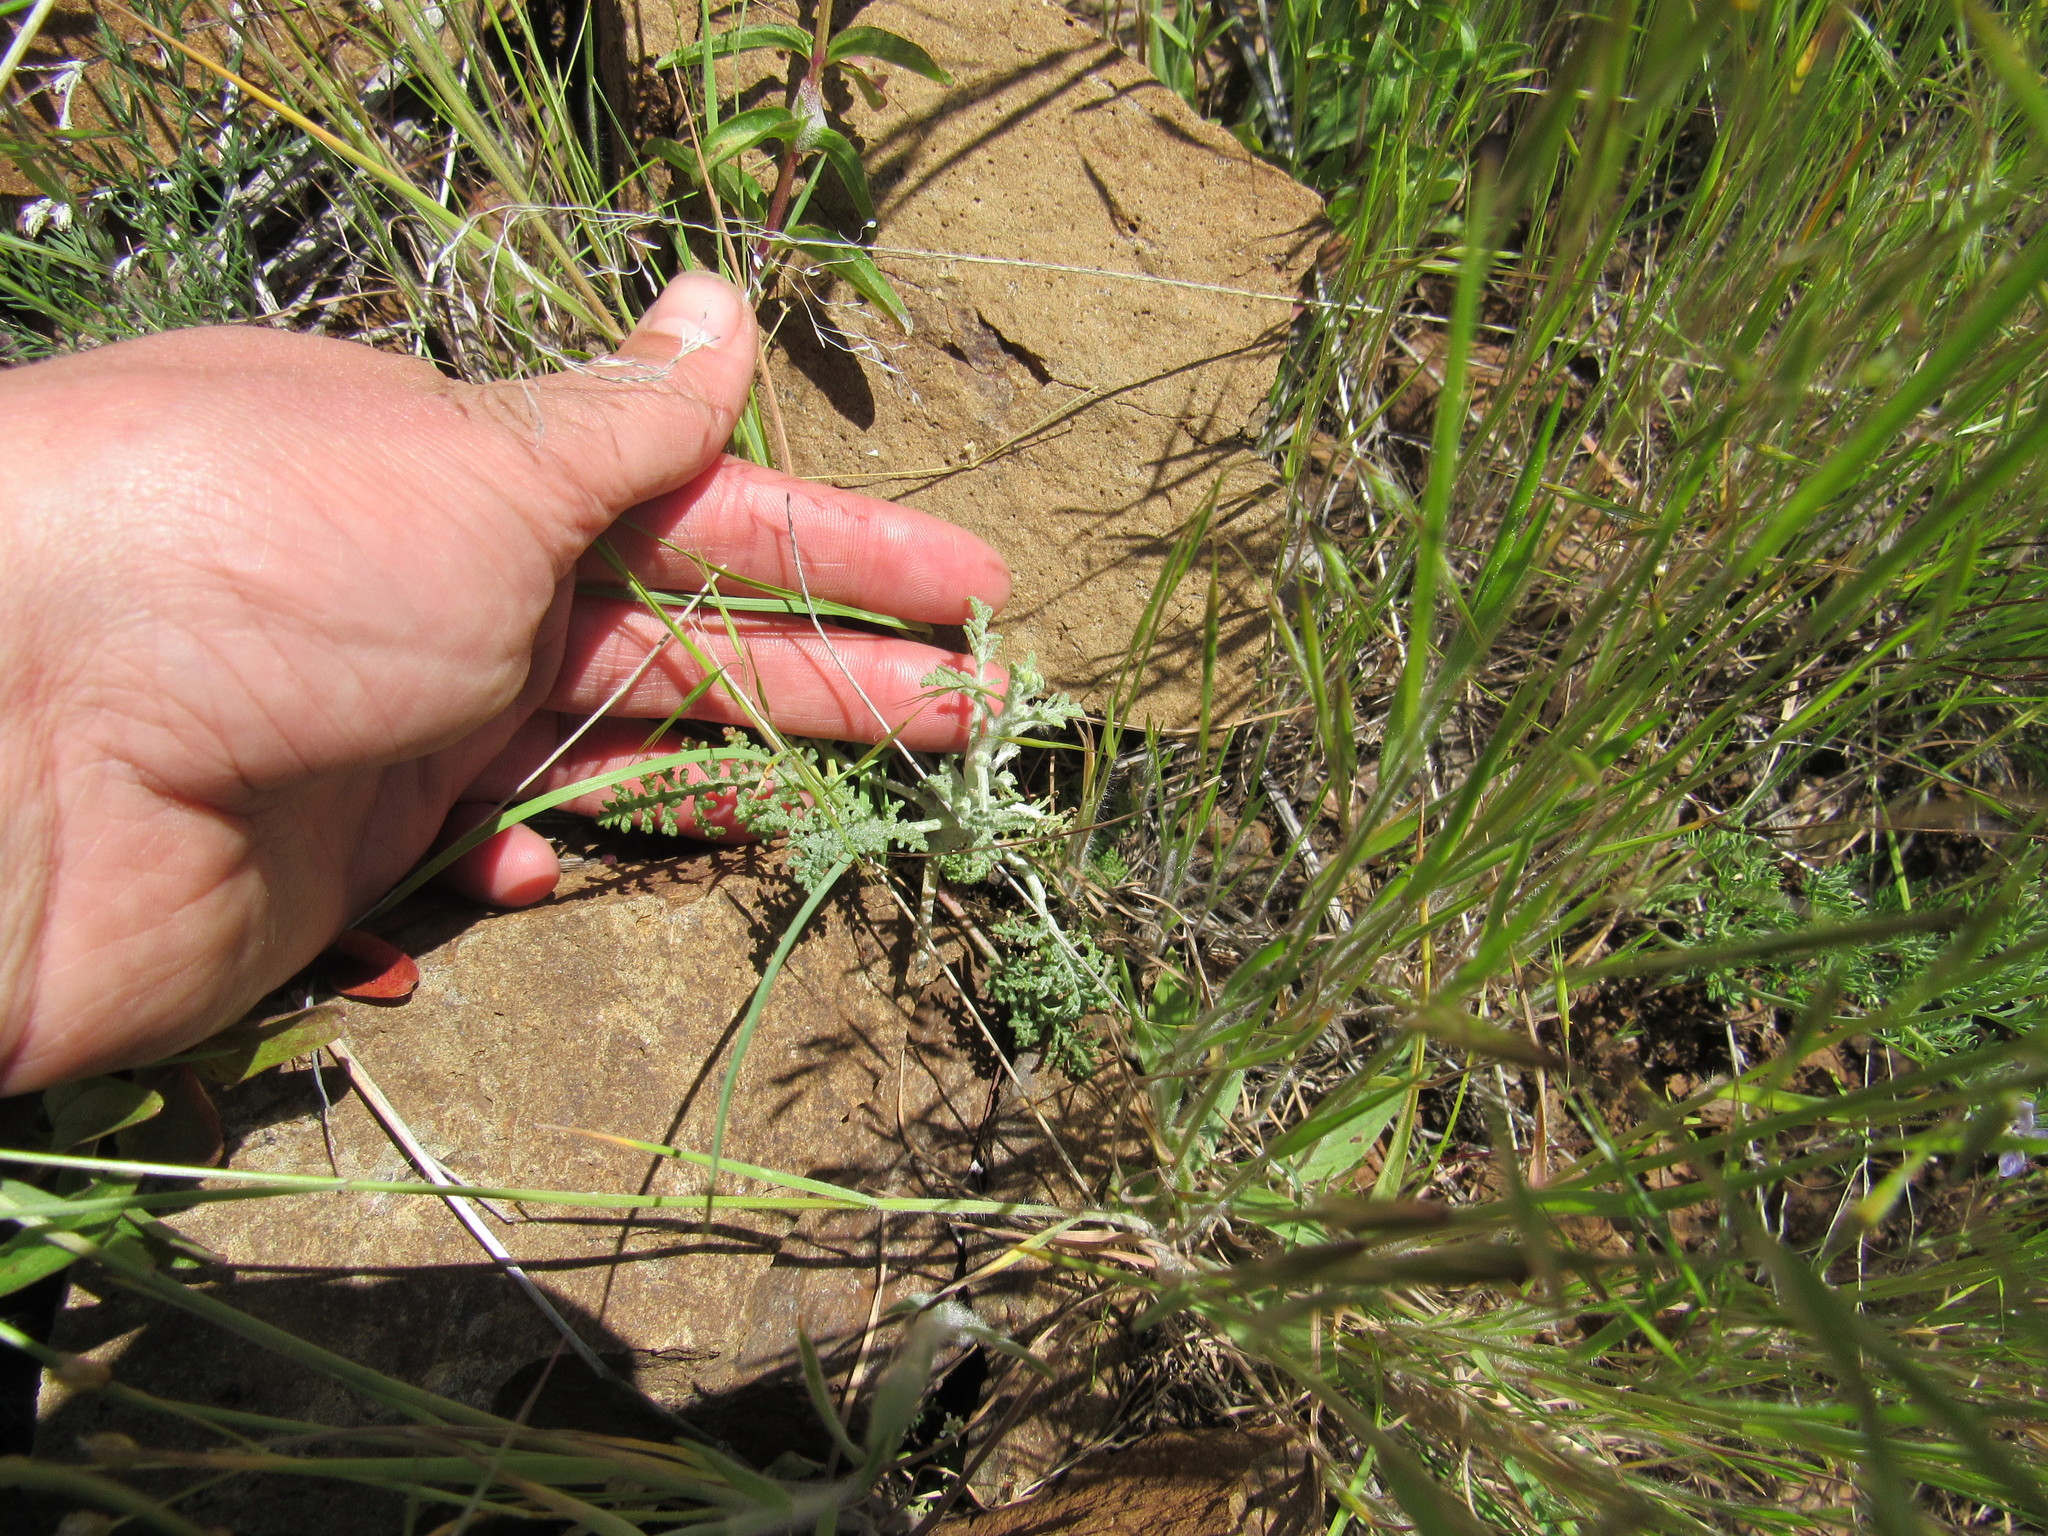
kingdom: Plantae
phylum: Tracheophyta
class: Magnoliopsida
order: Asterales
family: Asteraceae
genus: Chaenactis
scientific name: Chaenactis douglasii
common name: Hoary pincushion
